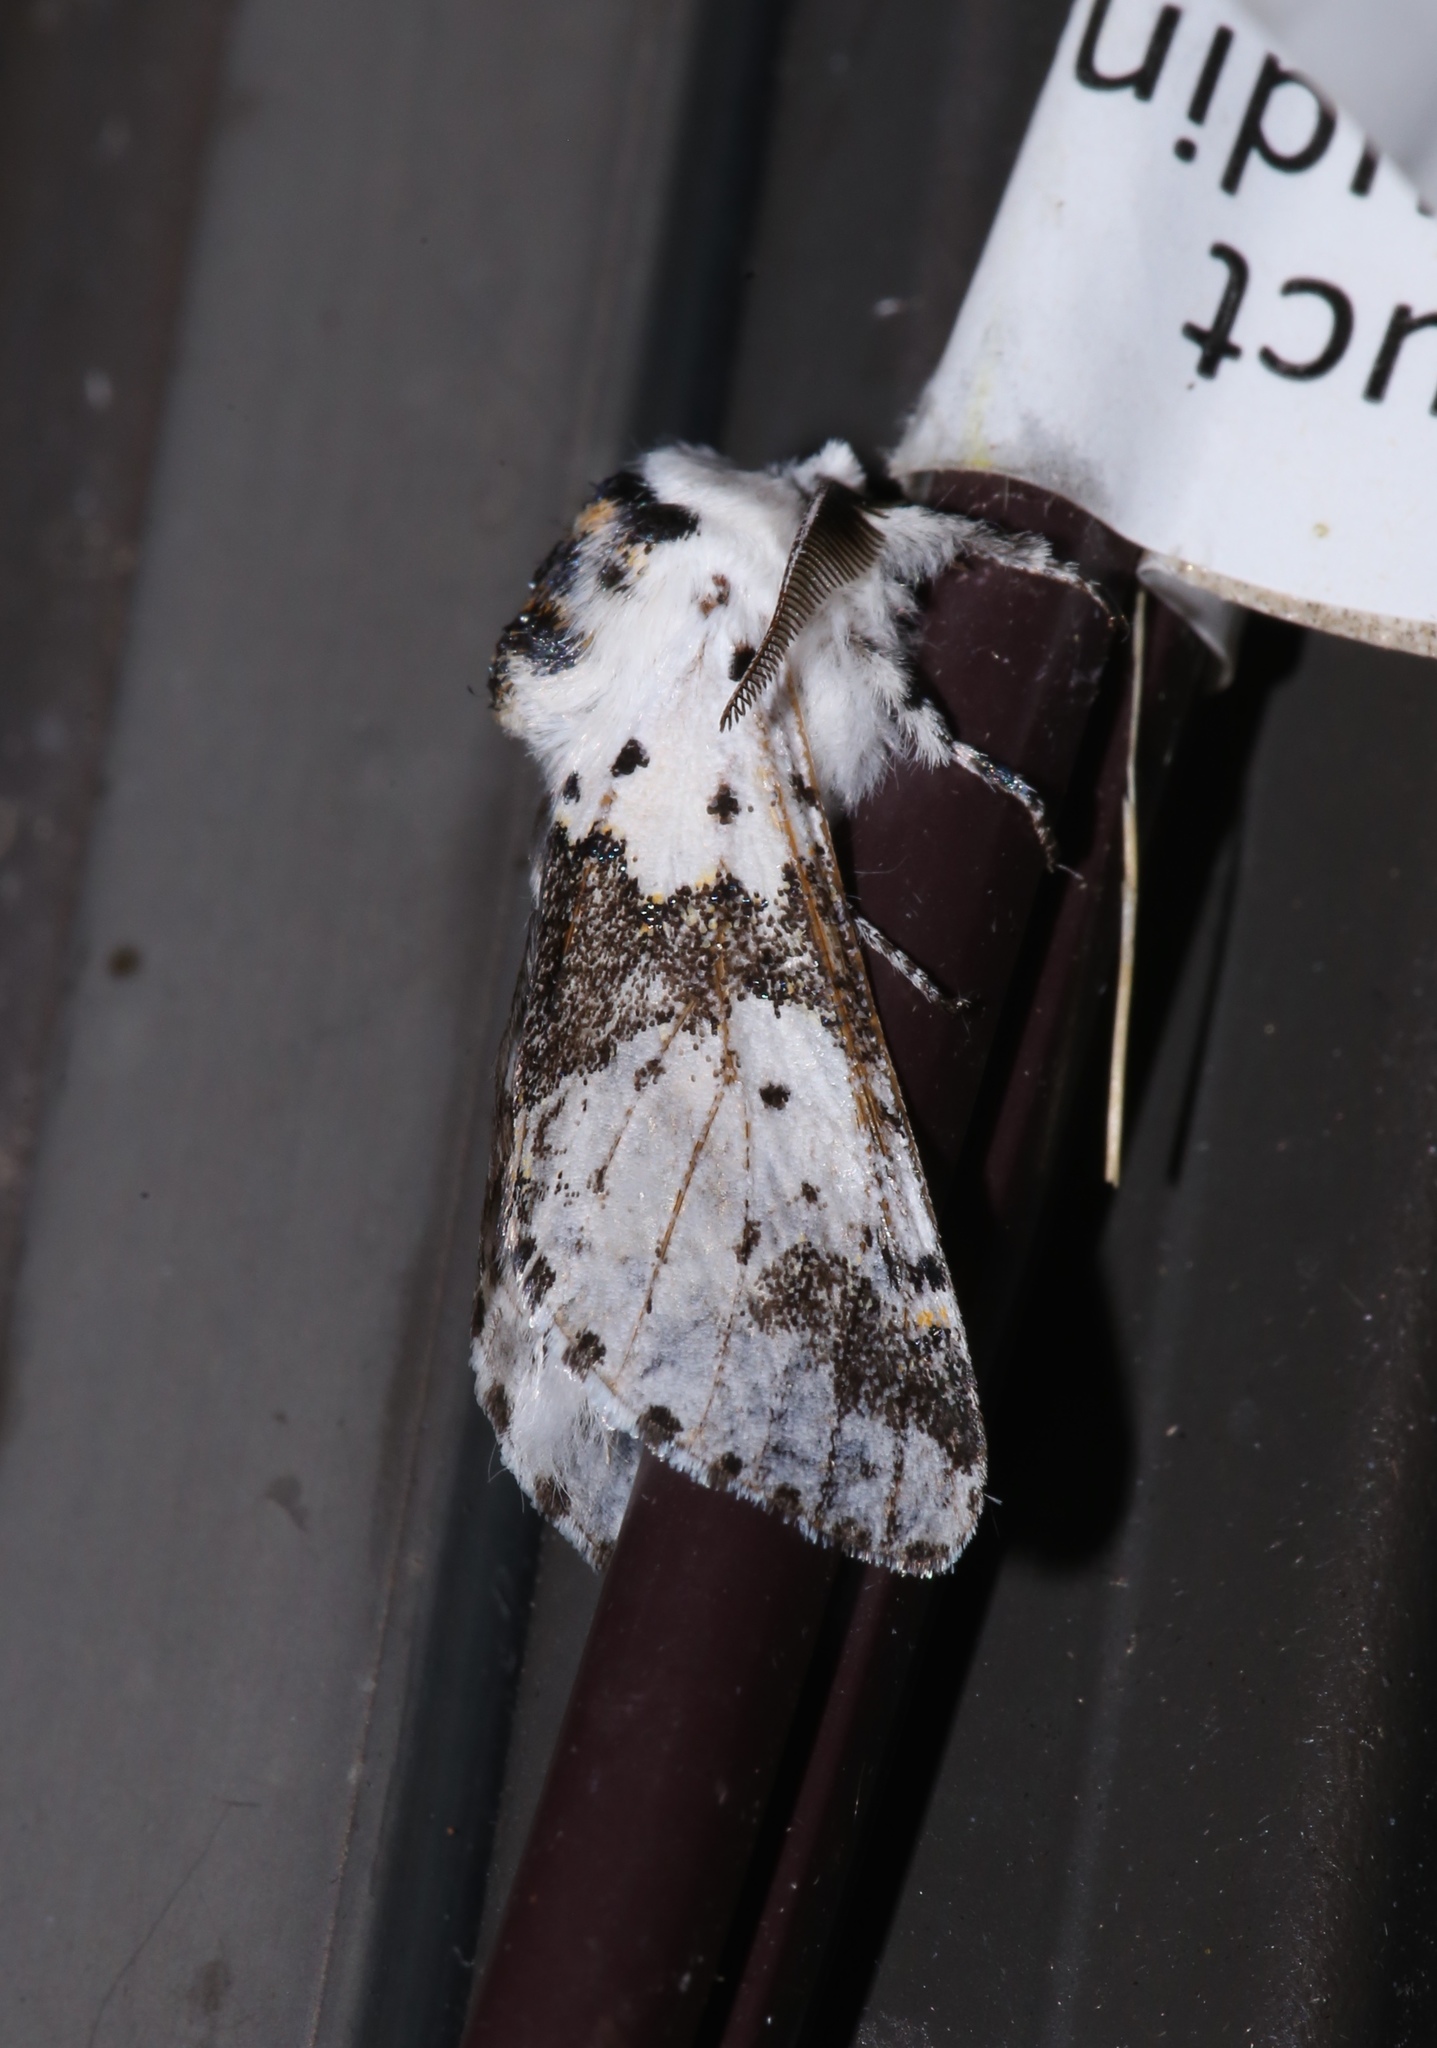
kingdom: Animalia
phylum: Arthropoda
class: Insecta
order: Lepidoptera
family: Notodontidae
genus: Furcula
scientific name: Furcula borealis
